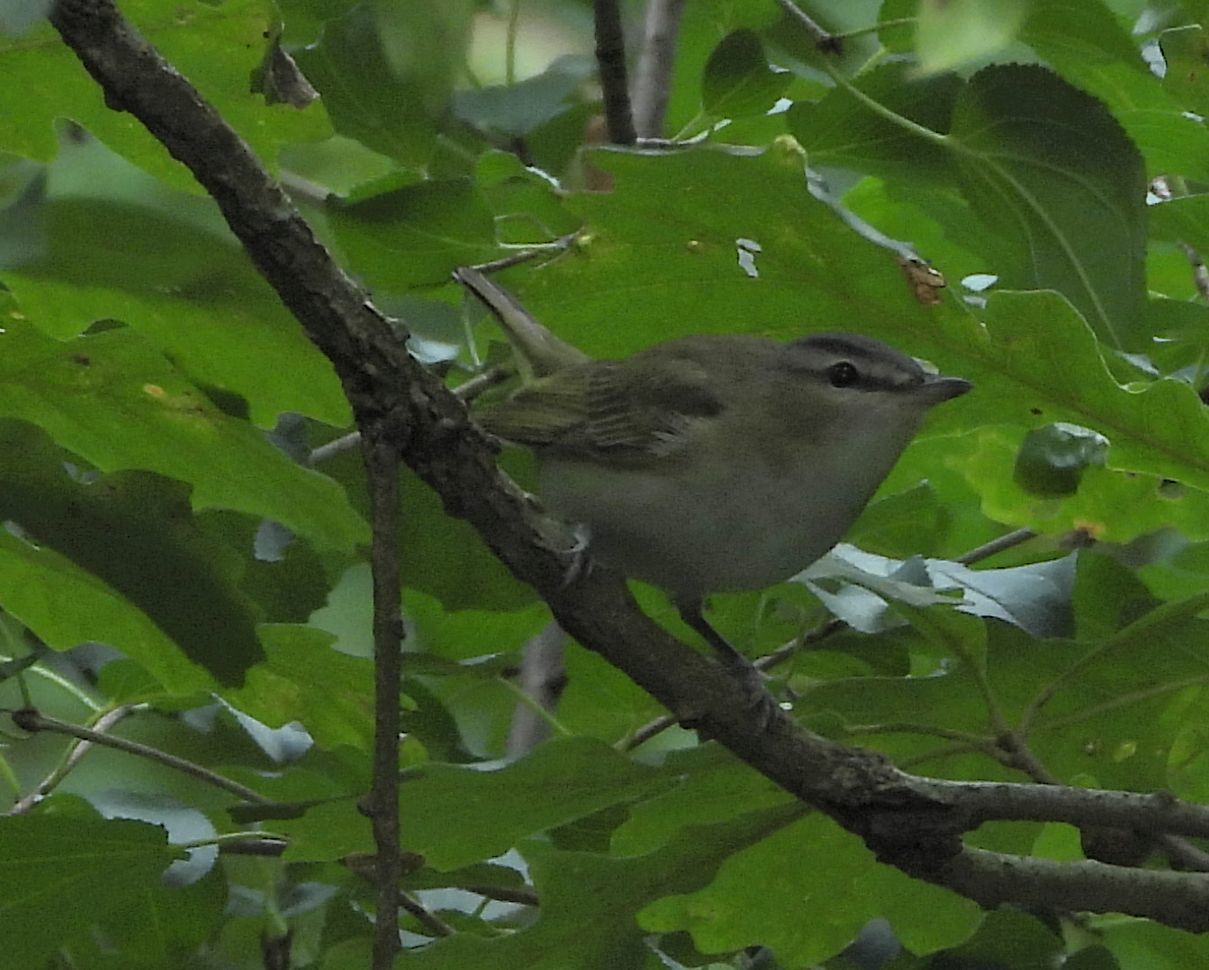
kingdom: Animalia
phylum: Chordata
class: Aves
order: Passeriformes
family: Vireonidae
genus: Vireo
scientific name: Vireo olivaceus
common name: Red-eyed vireo
